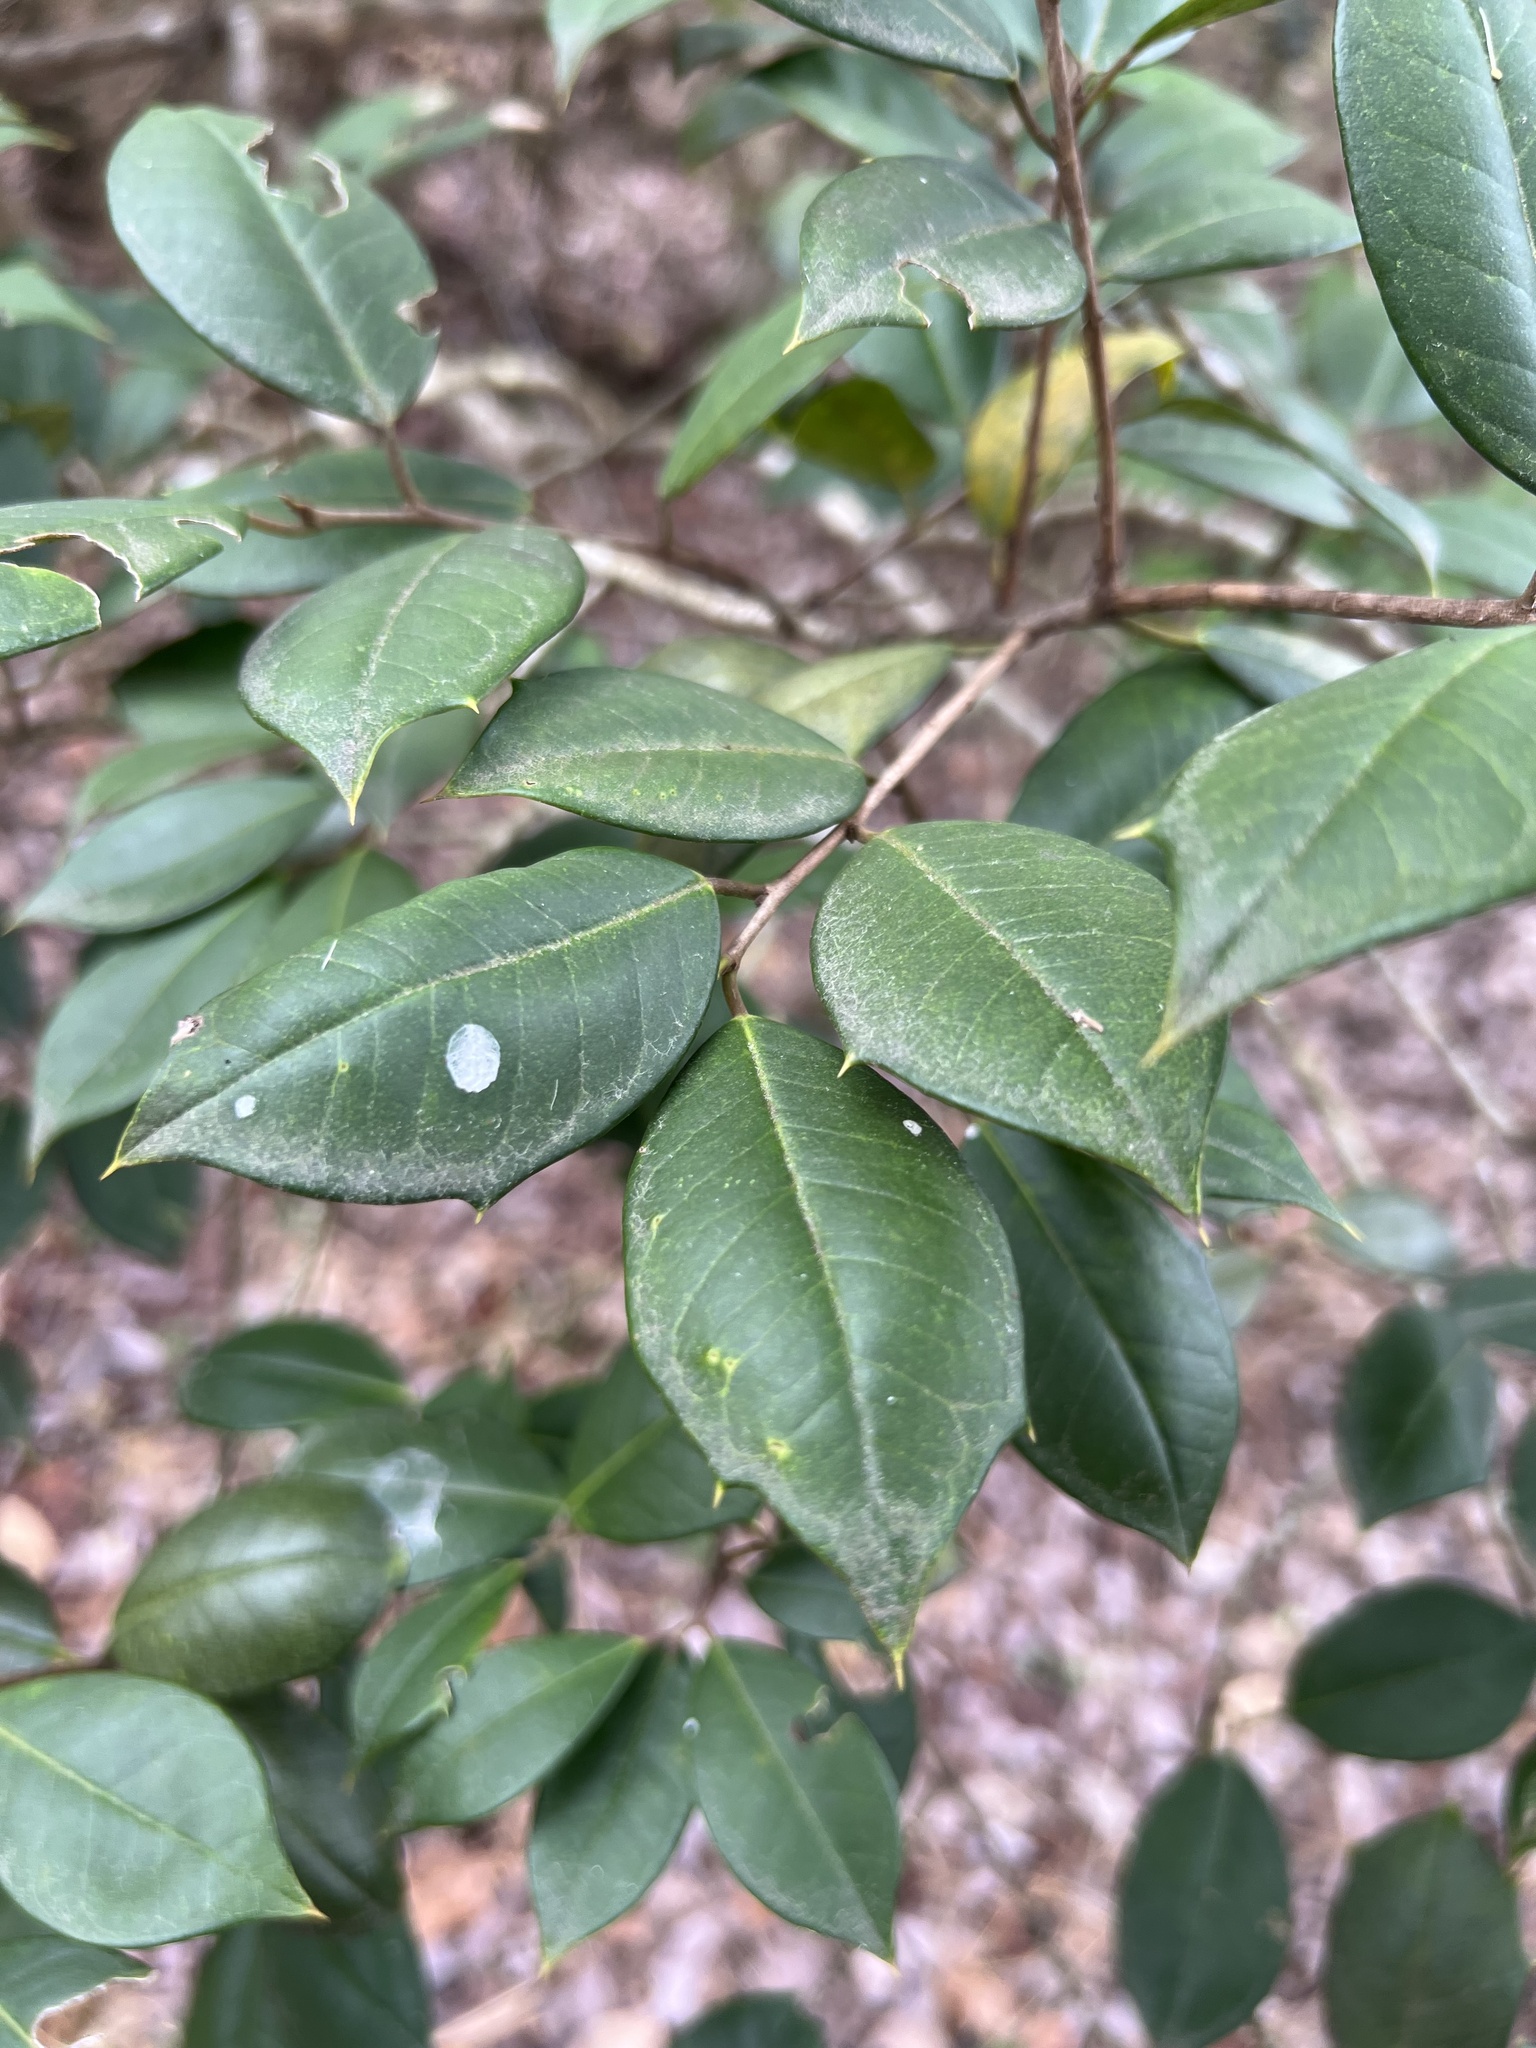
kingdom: Plantae
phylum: Tracheophyta
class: Magnoliopsida
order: Aquifoliales
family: Aquifoliaceae
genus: Ilex
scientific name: Ilex opaca
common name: American holly
